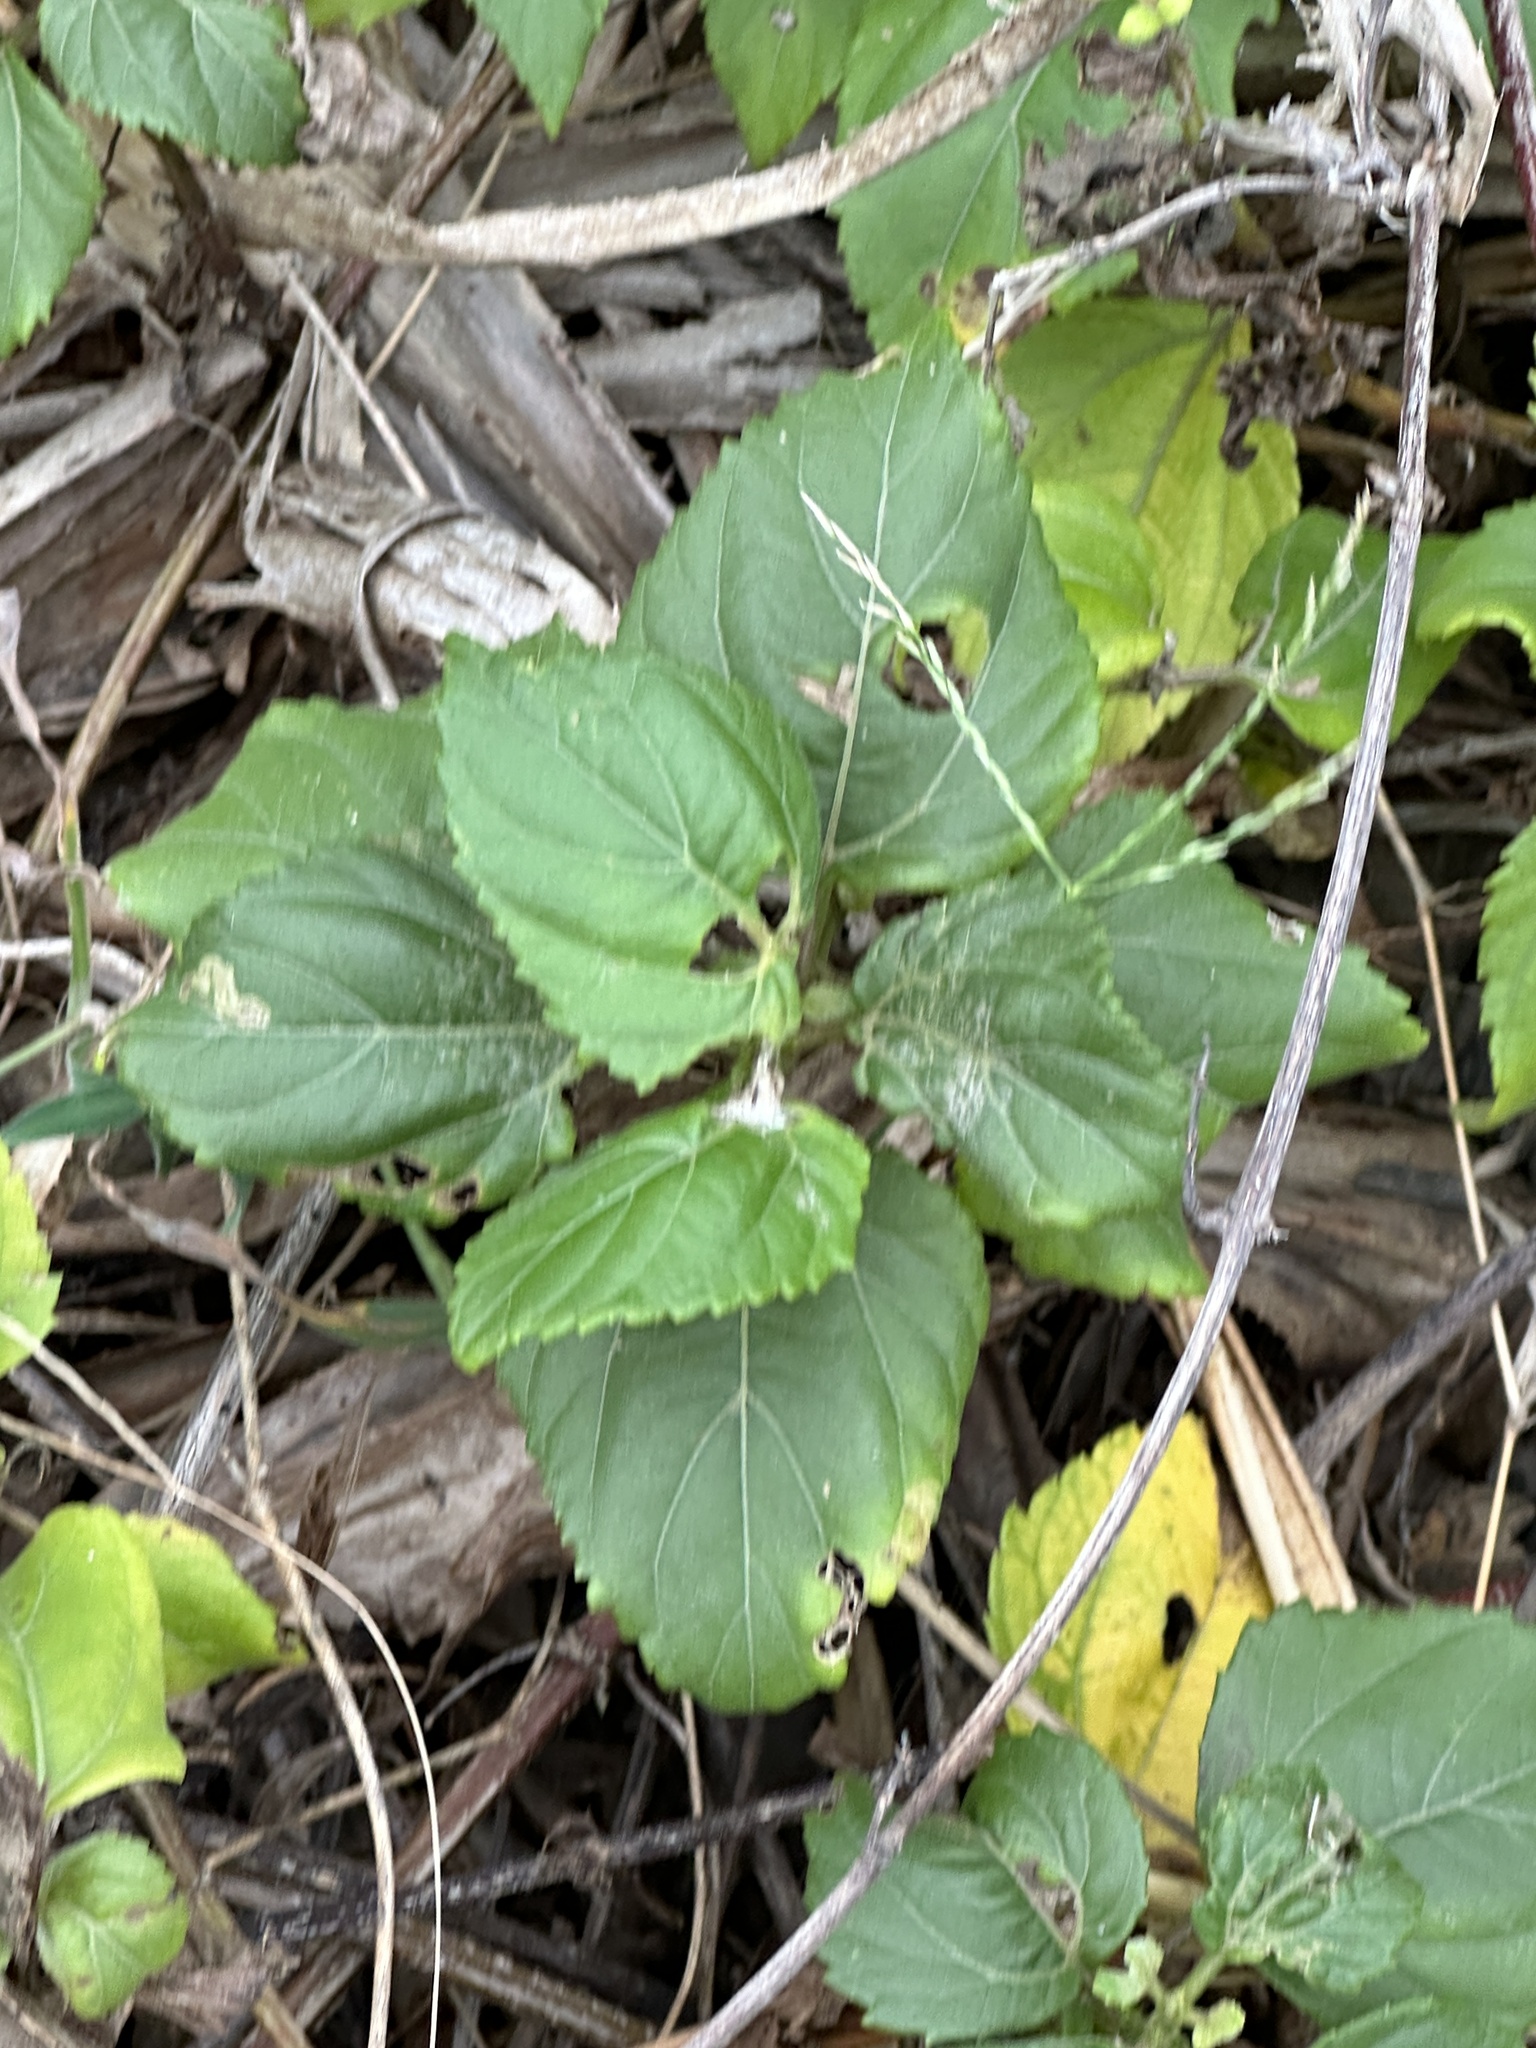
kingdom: Plantae
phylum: Tracheophyta
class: Magnoliopsida
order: Asterales
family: Asteraceae
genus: Wollastonia
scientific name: Wollastonia biflora
